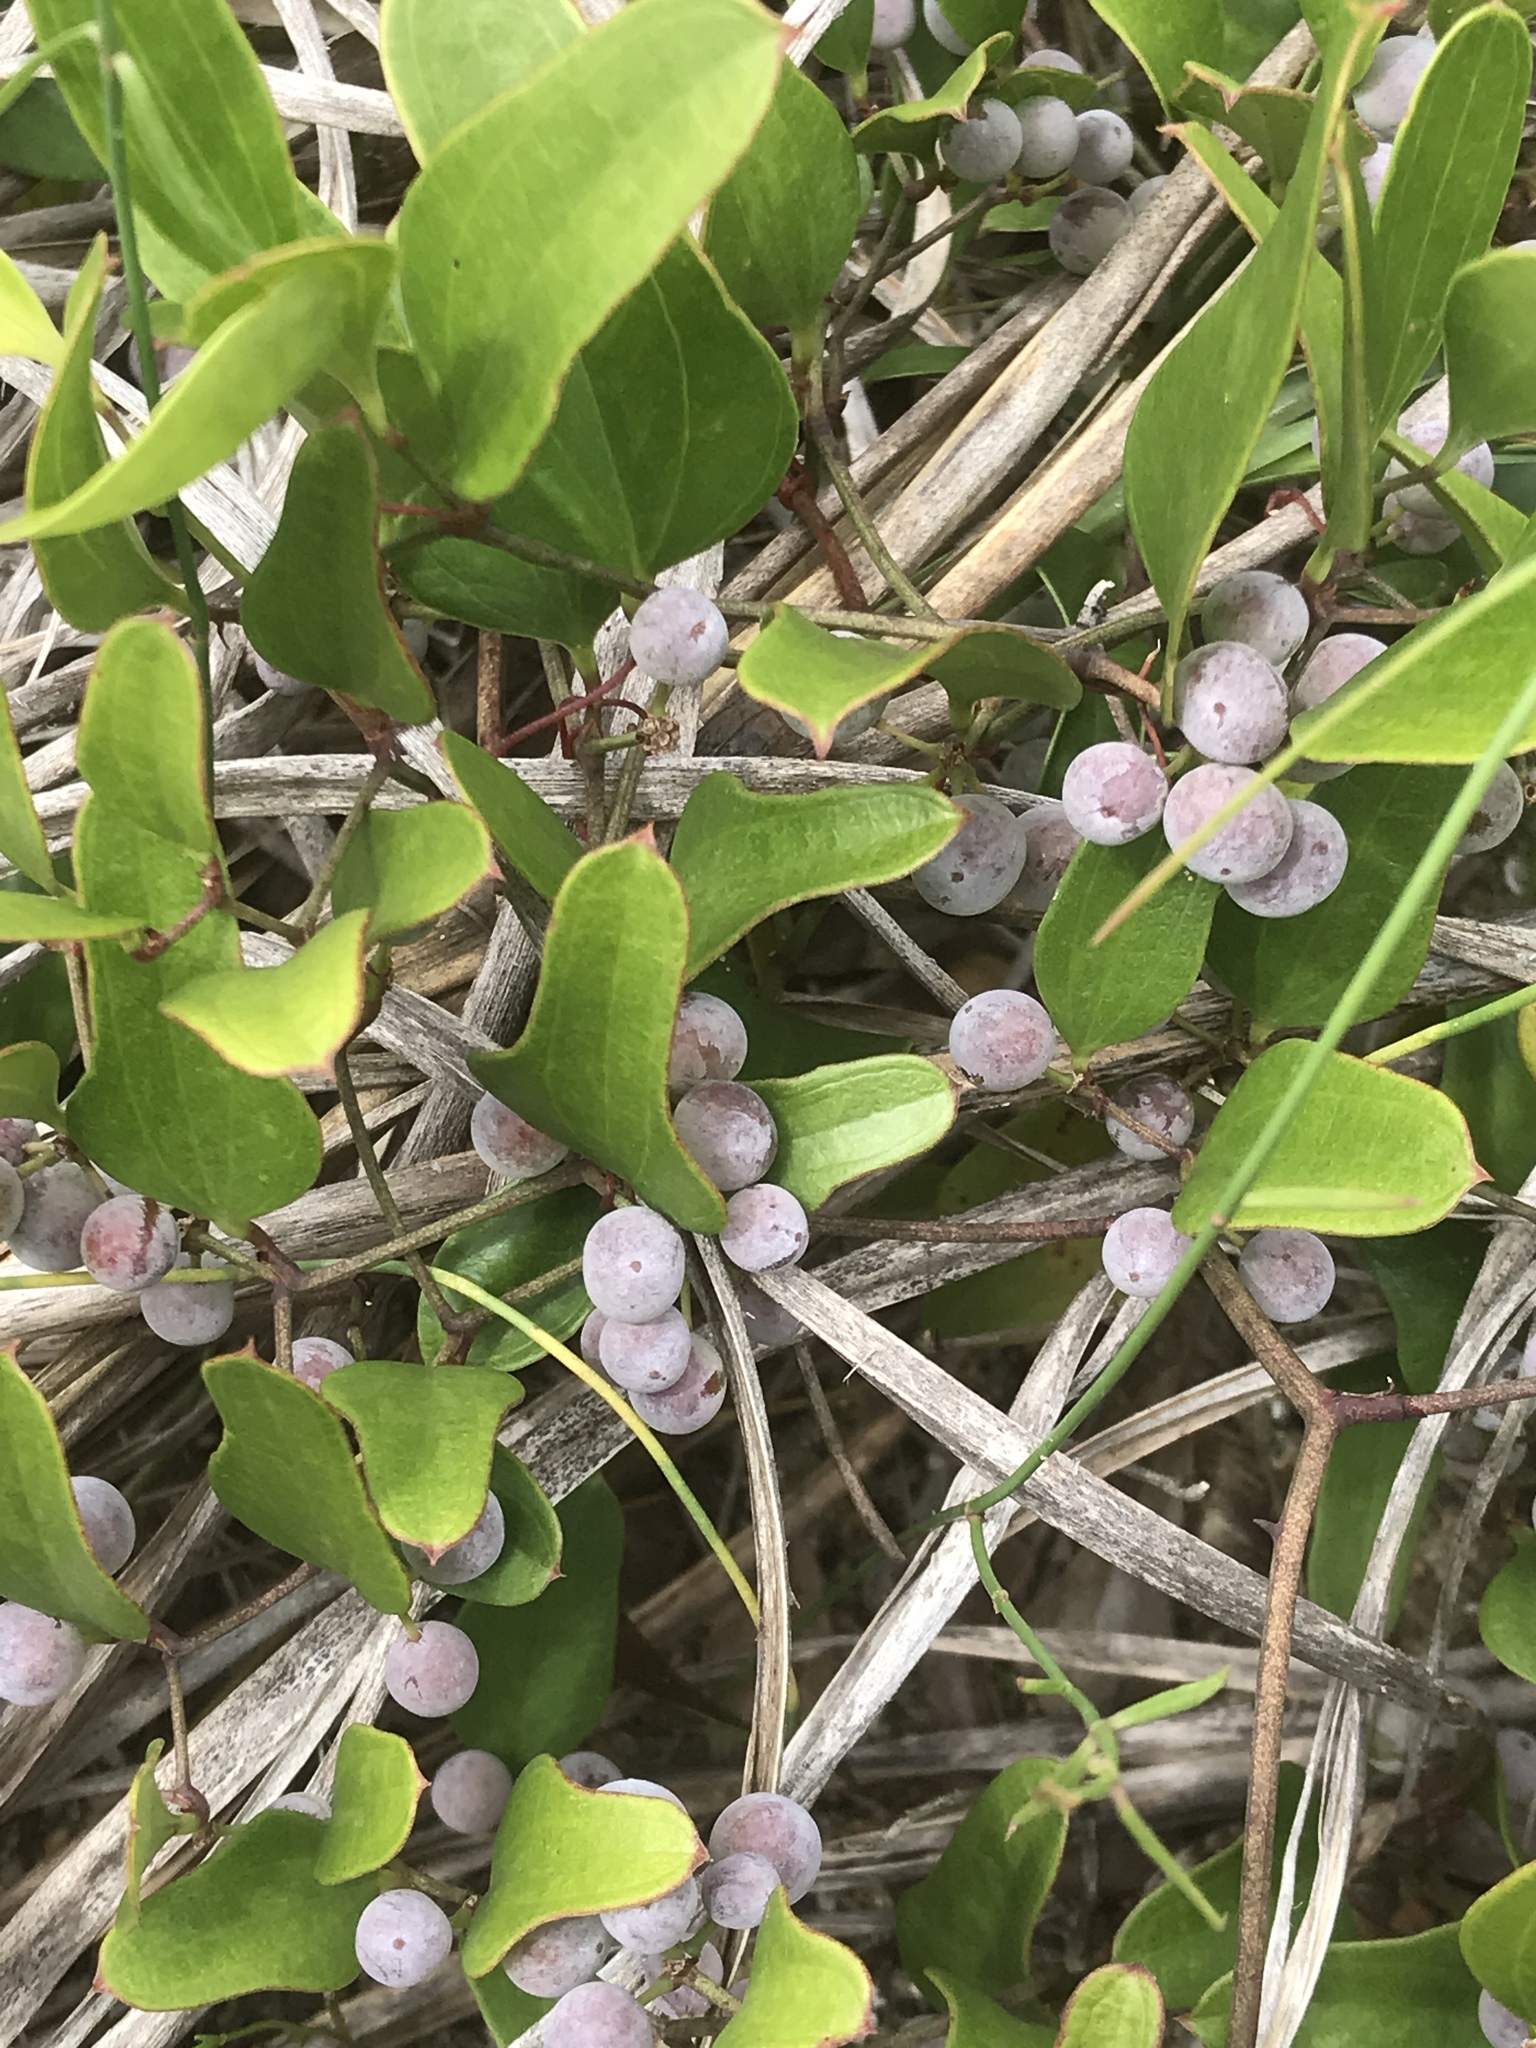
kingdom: Plantae
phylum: Tracheophyta
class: Liliopsida
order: Liliales
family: Smilacaceae
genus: Smilax
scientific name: Smilax auriculata
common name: Wild bamboo
